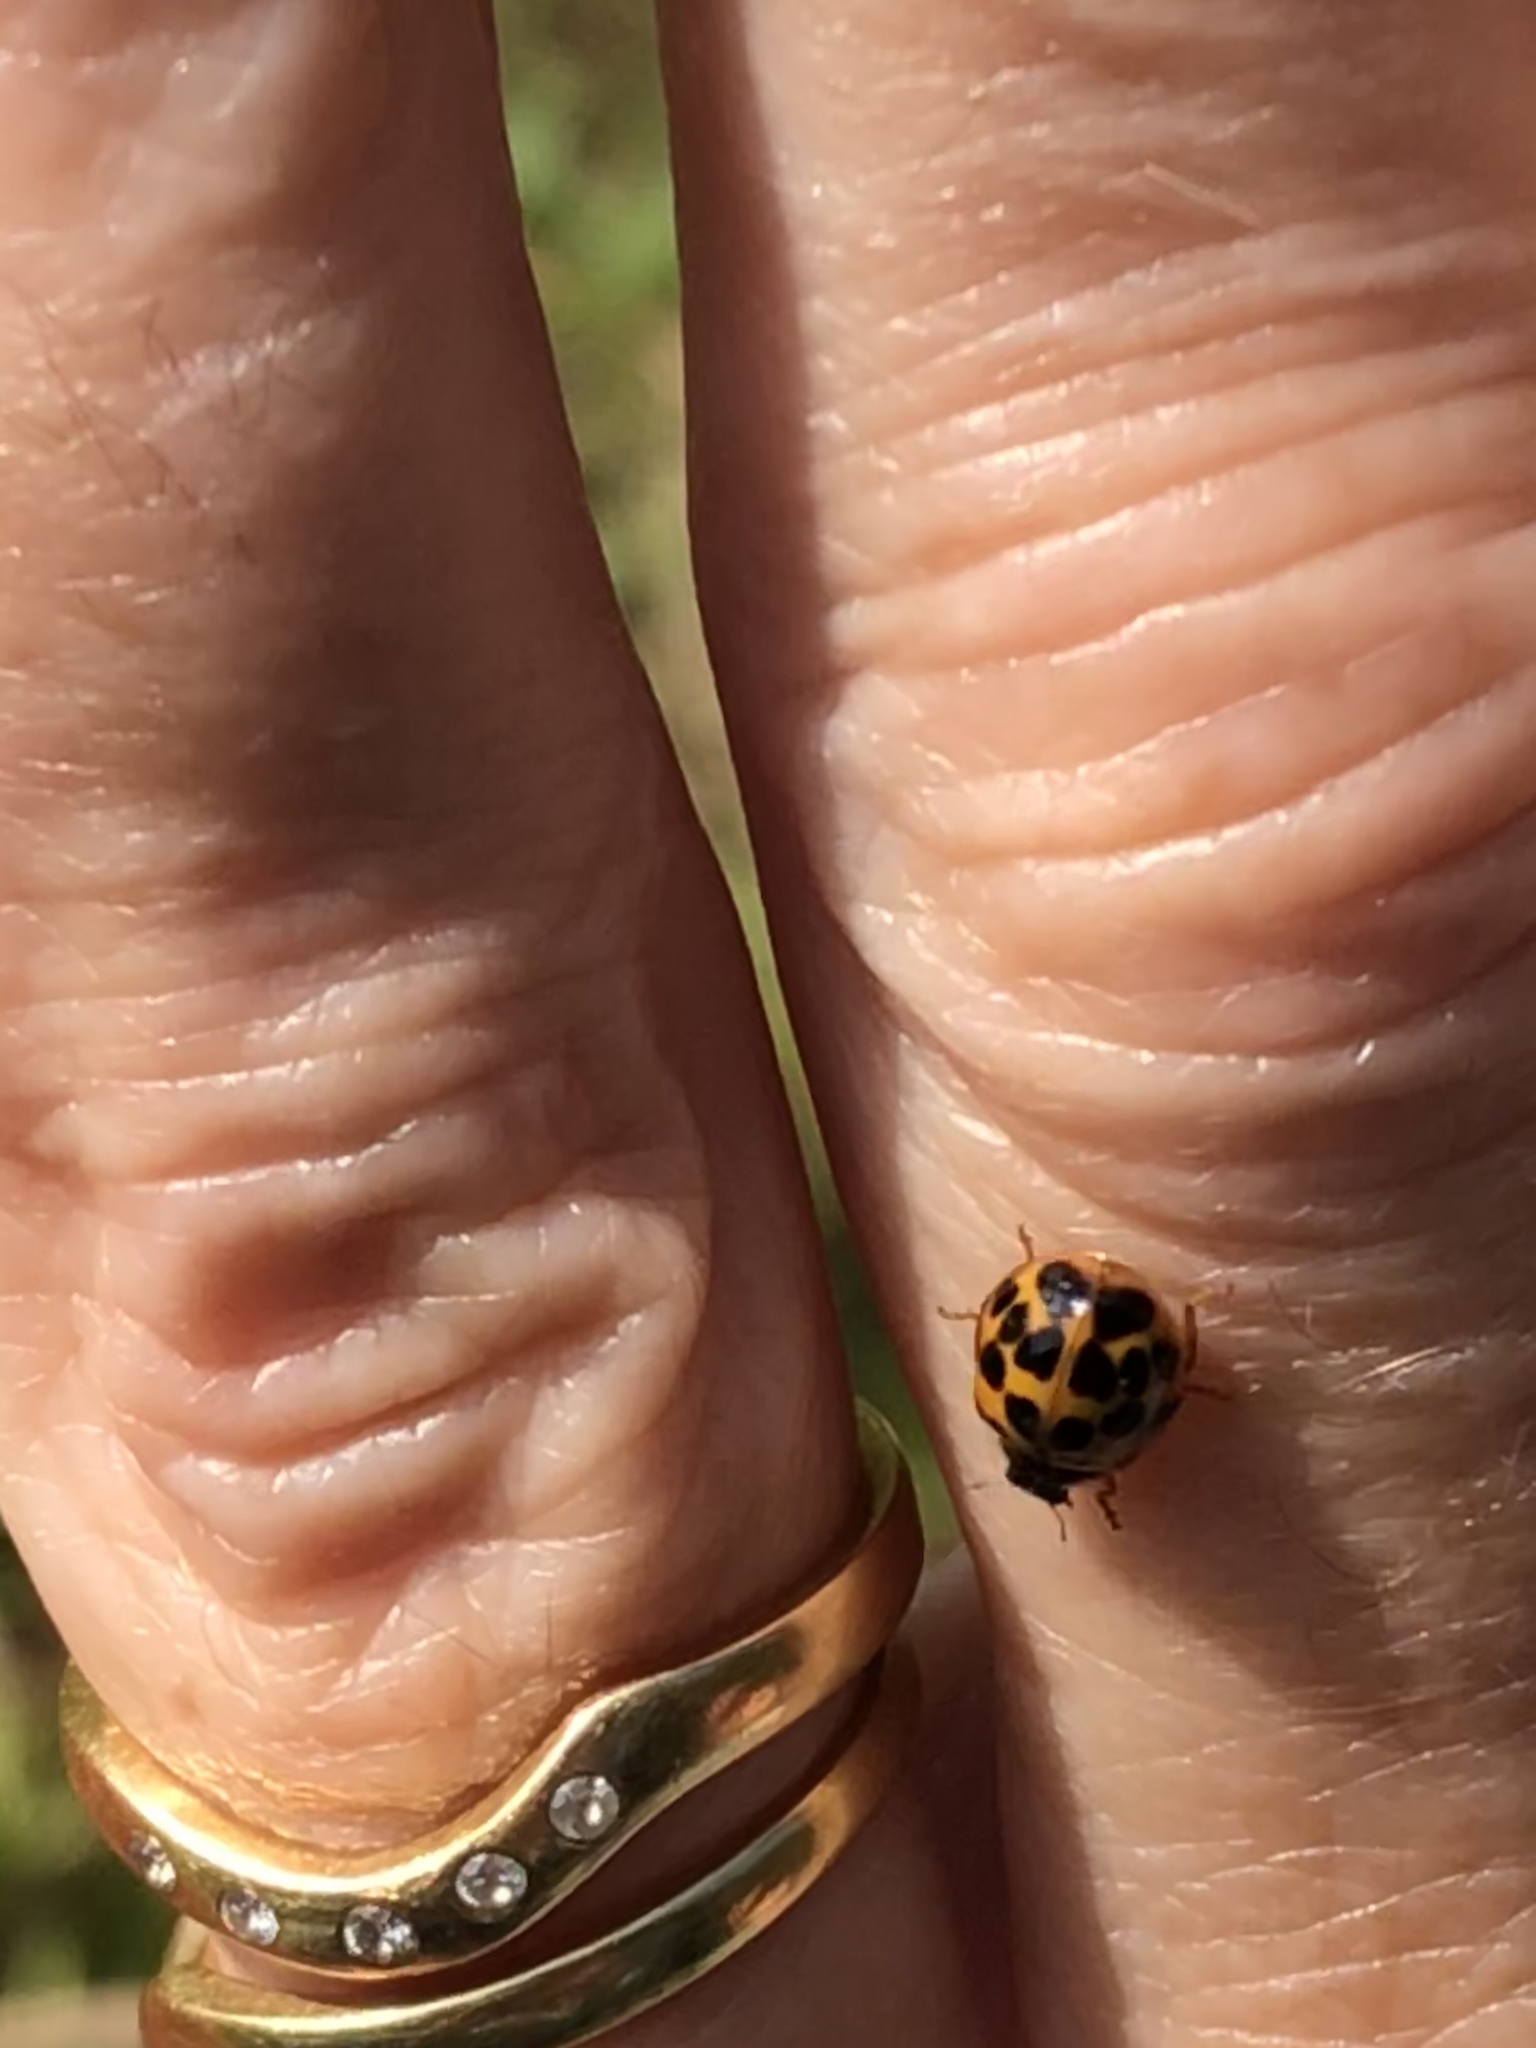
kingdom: Animalia
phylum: Arthropoda
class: Insecta
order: Coleoptera
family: Coccinellidae
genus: Harmonia
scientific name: Harmonia axyridis
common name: Harlequin ladybird
